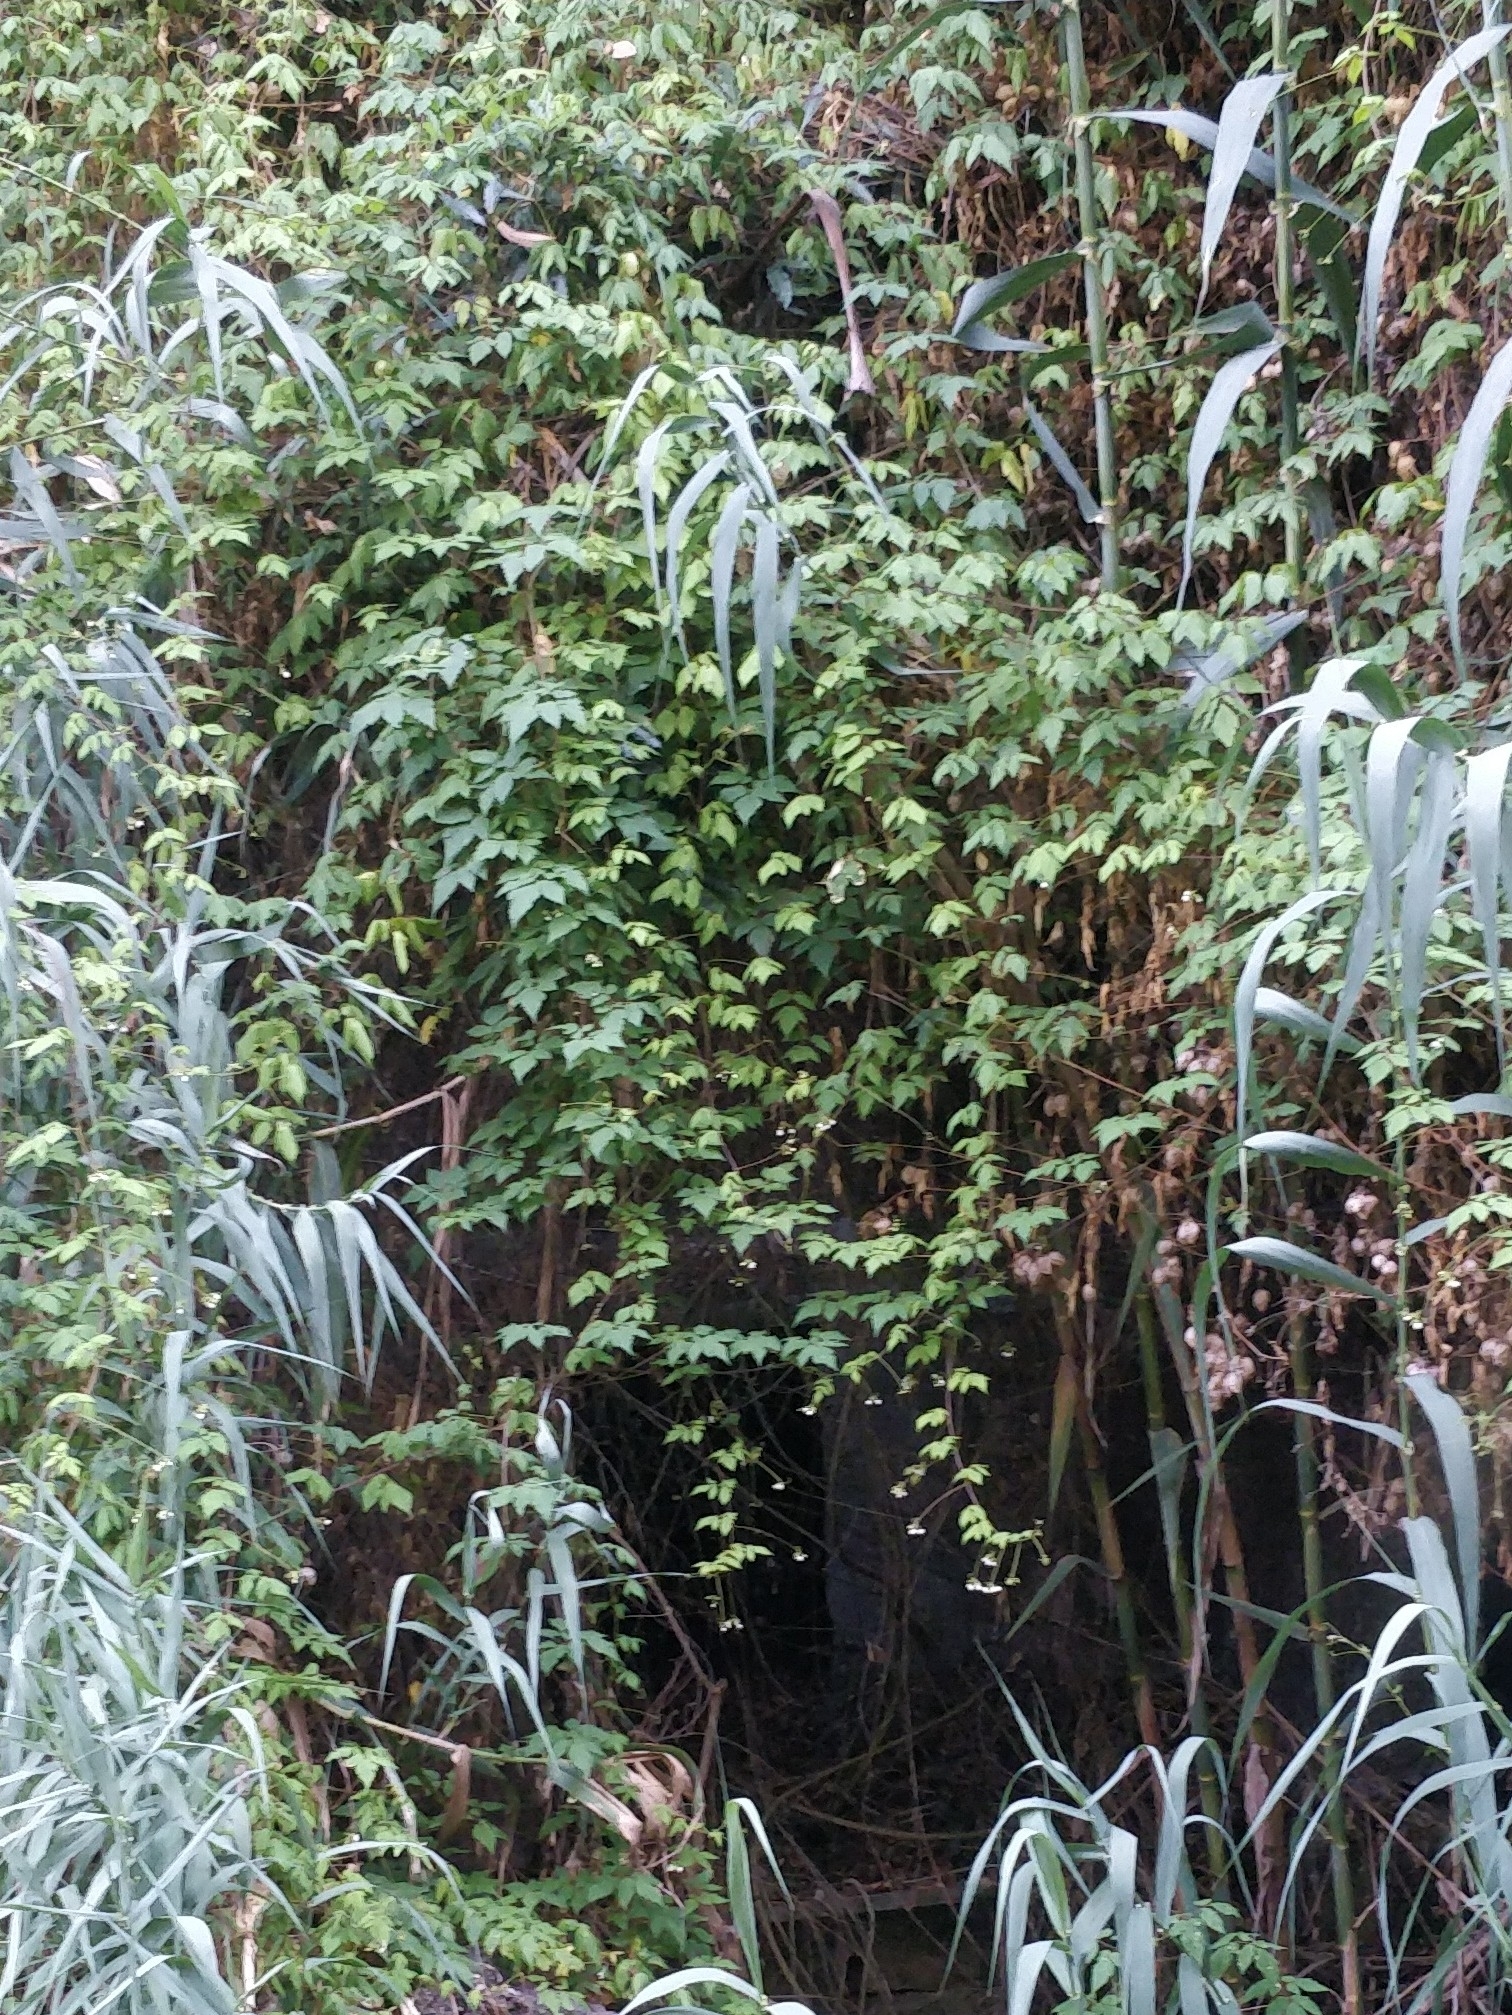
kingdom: Plantae
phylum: Tracheophyta
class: Magnoliopsida
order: Sapindales
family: Sapindaceae
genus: Cardiospermum
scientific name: Cardiospermum grandiflorum
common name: Balloon vine
